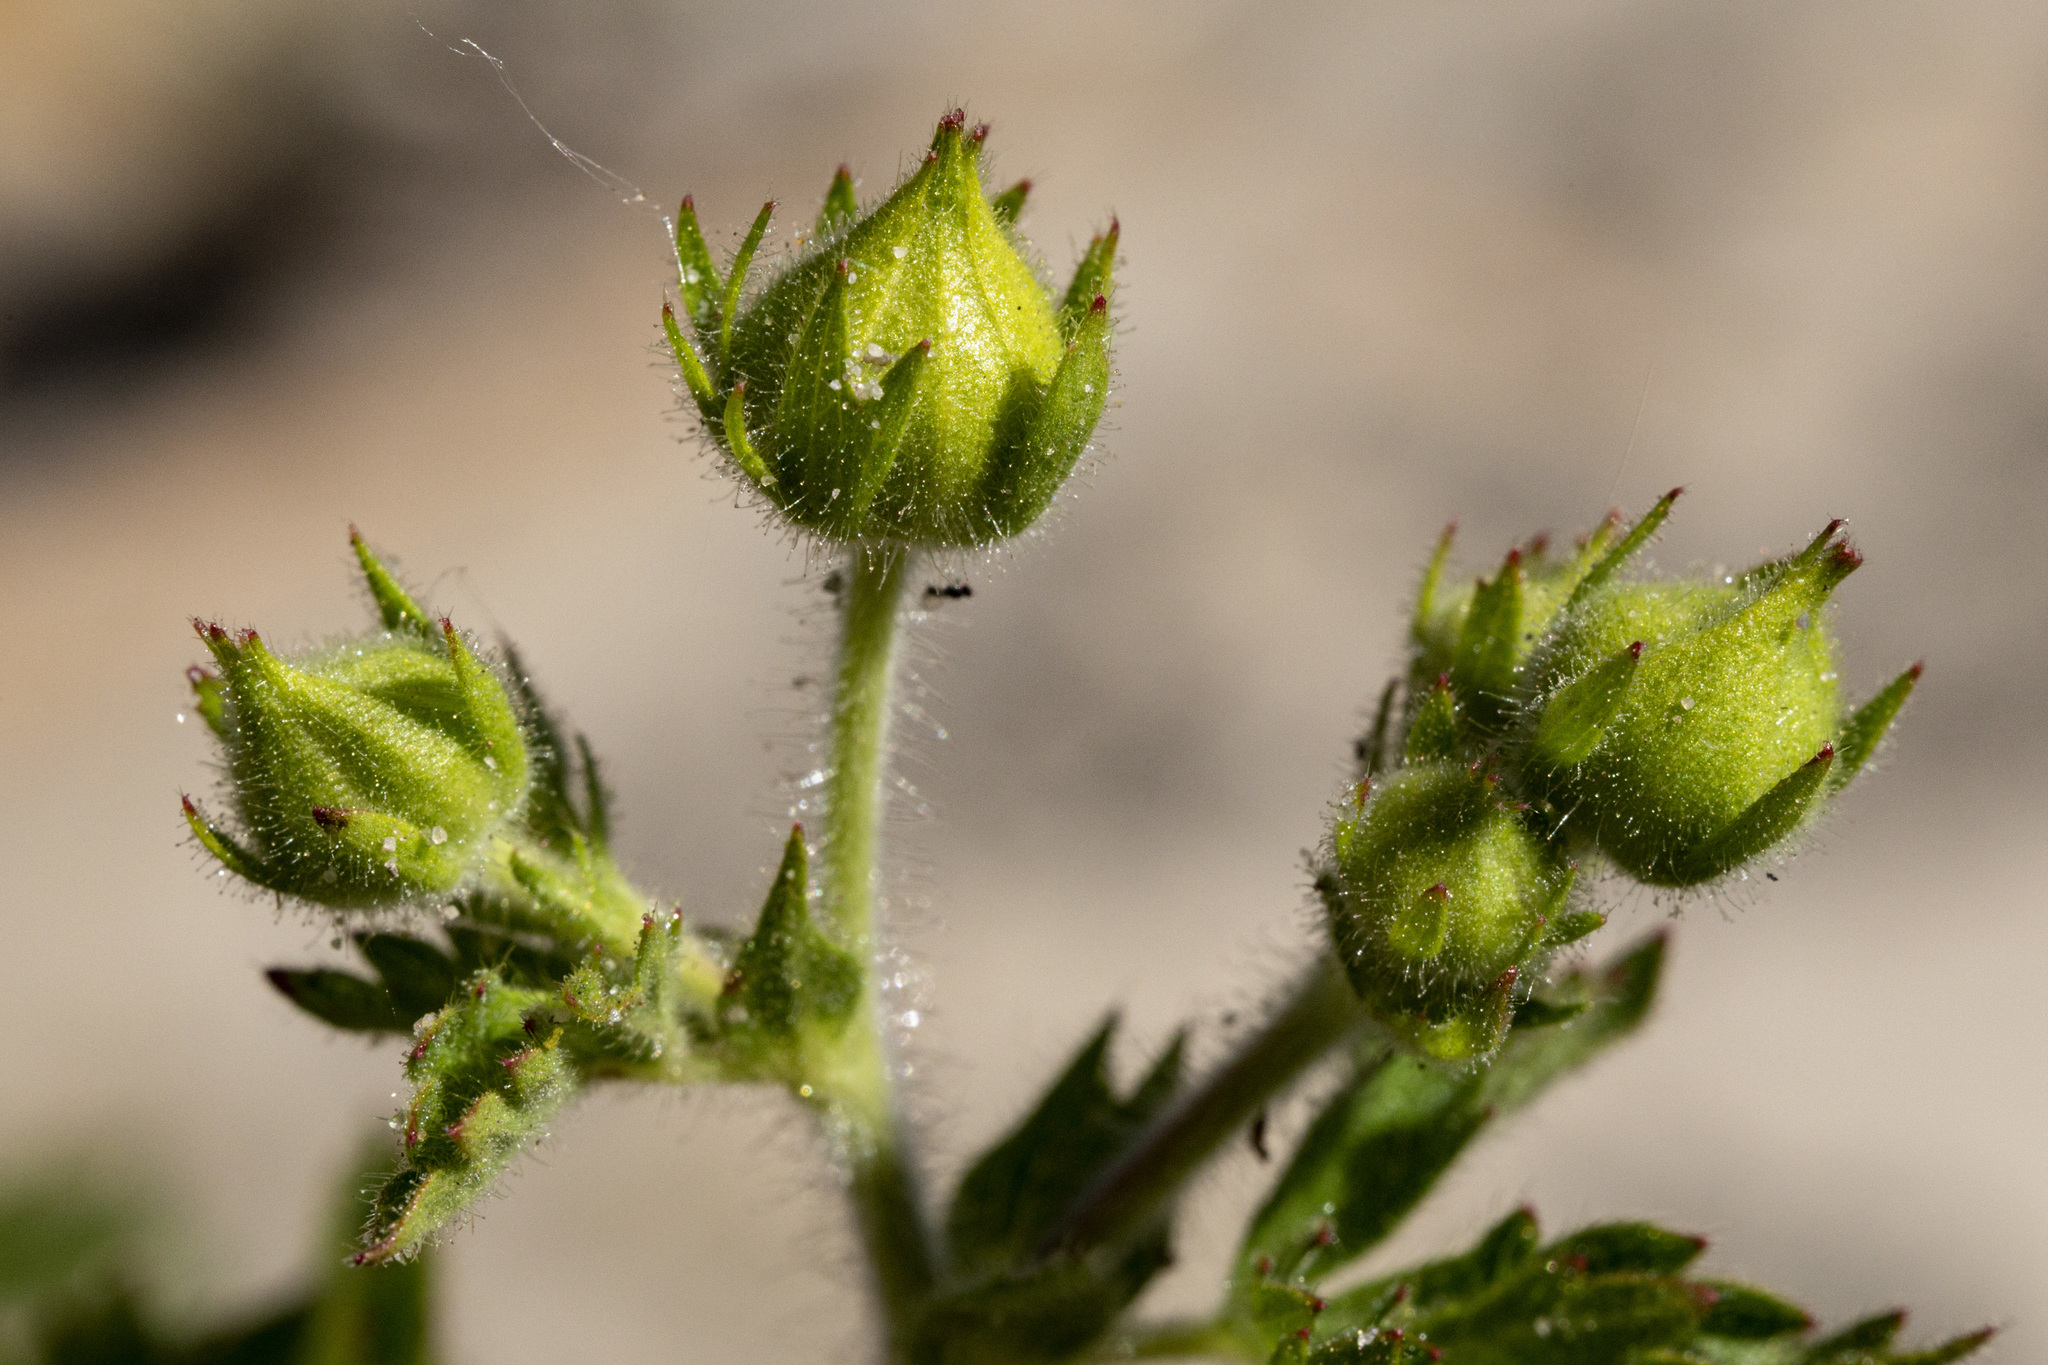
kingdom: Plantae
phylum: Tracheophyta
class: Magnoliopsida
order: Rosales
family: Rosaceae
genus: Drymocallis
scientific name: Drymocallis fissa
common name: Big-flowered cinquefoil
